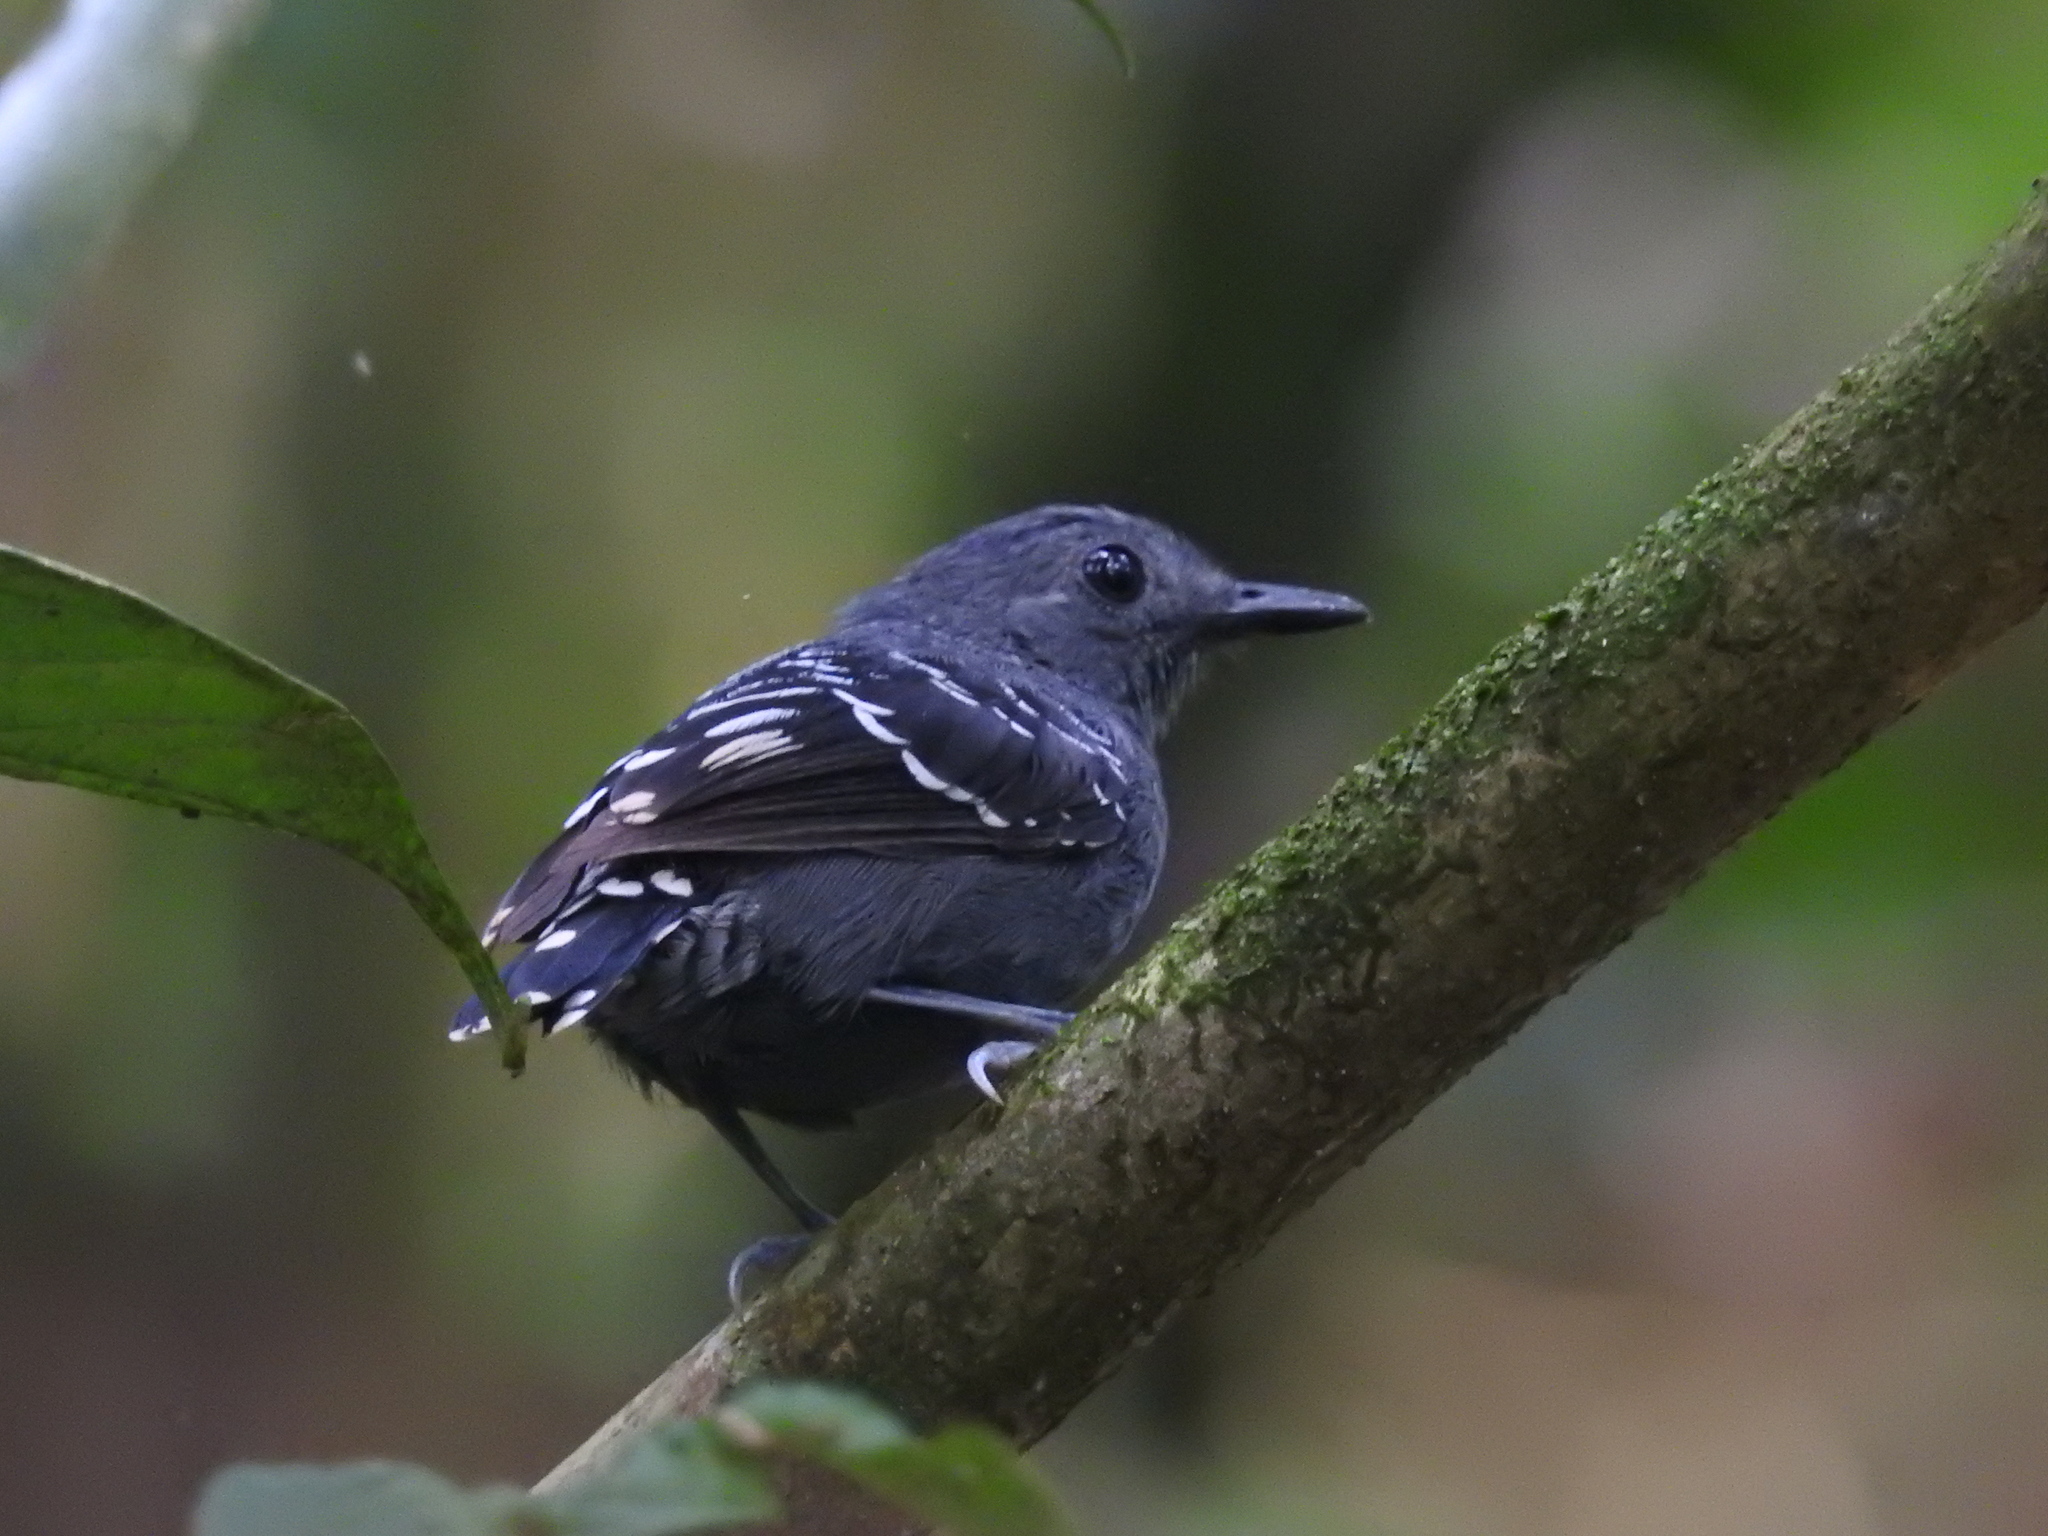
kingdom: Animalia
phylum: Chordata
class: Aves
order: Passeriformes
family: Thamnophilidae
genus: Willisornis
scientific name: Willisornis poecilinotus
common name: Common scale-backed antbird
